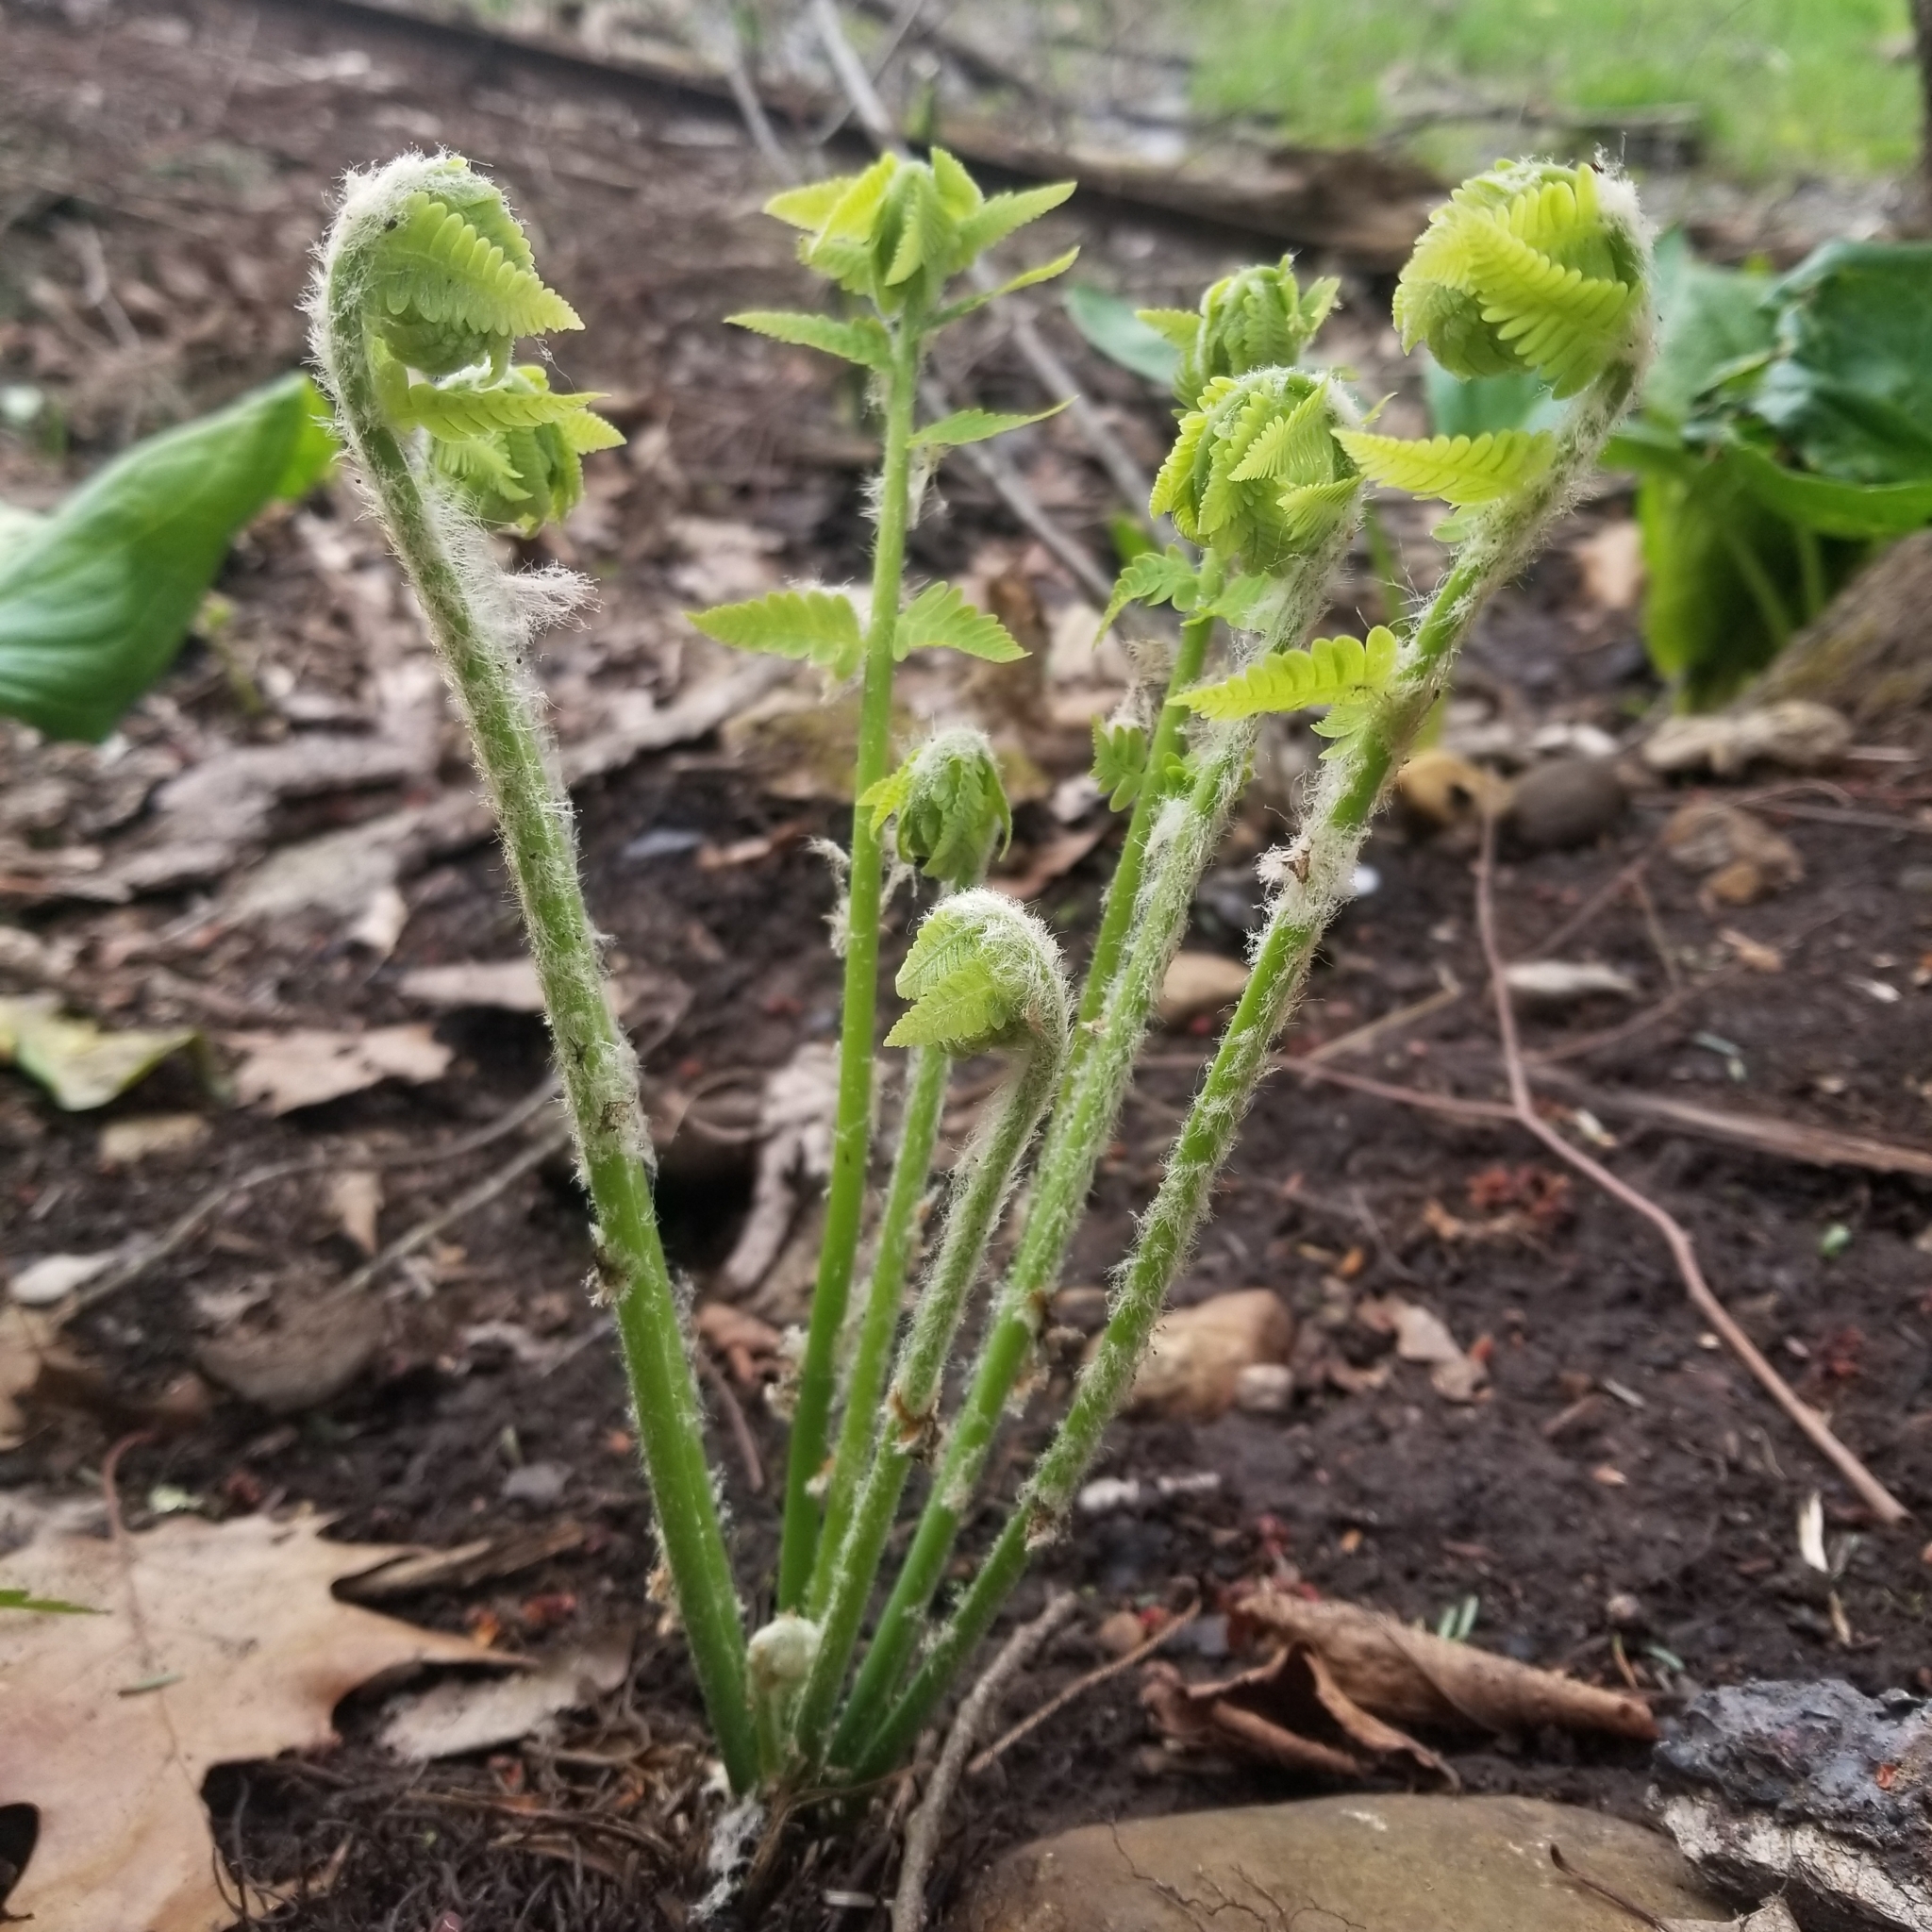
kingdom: Plantae
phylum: Tracheophyta
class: Polypodiopsida
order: Osmundales
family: Osmundaceae
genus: Claytosmunda
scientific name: Claytosmunda claytoniana
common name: Clayton's fern
